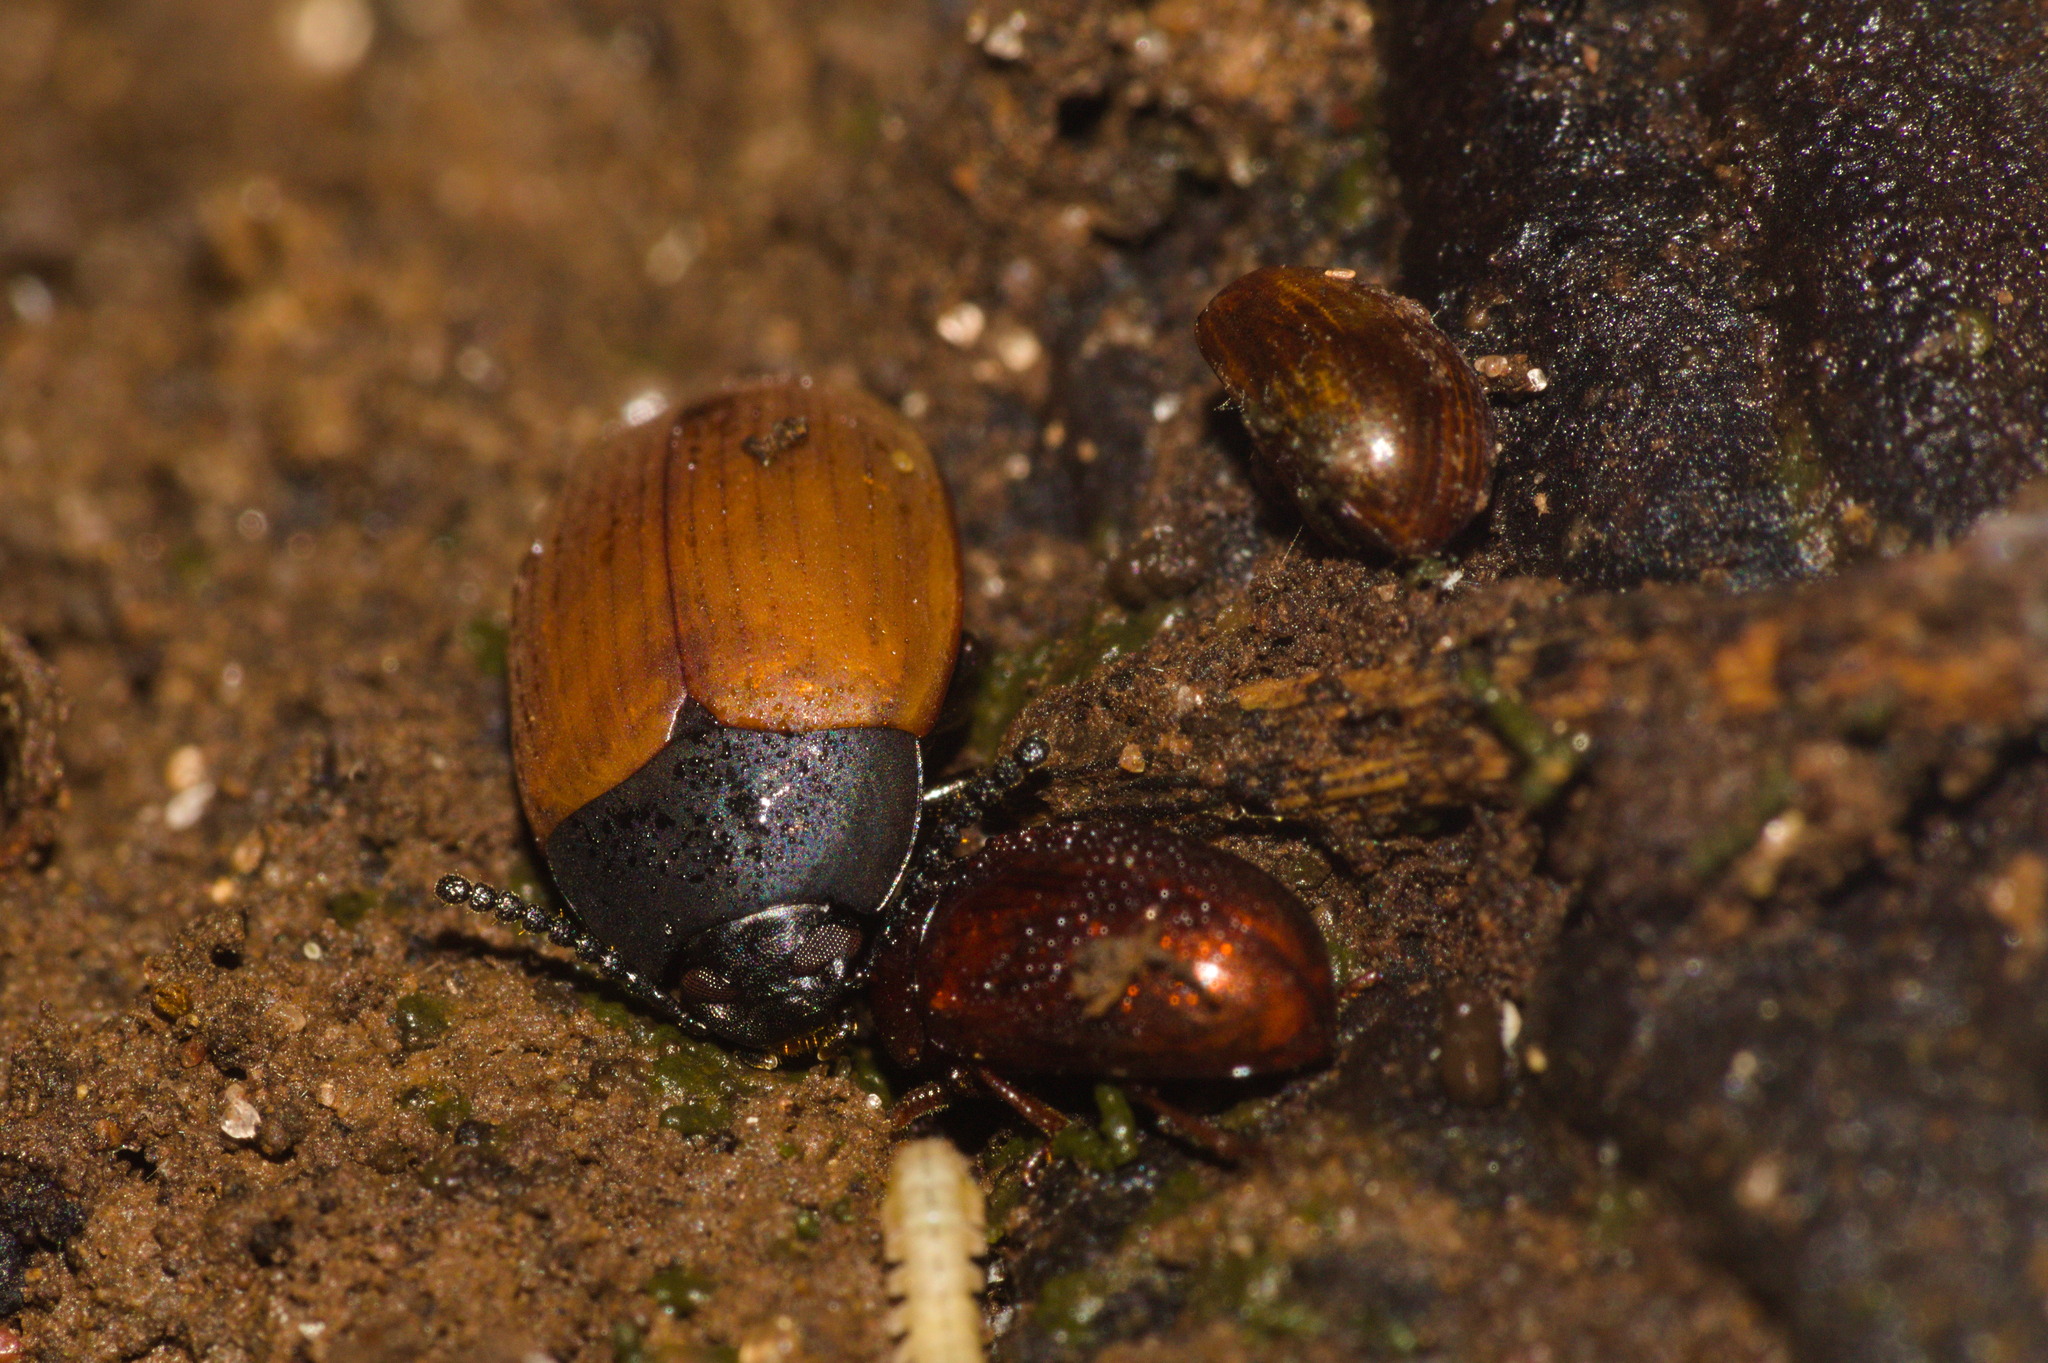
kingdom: Animalia
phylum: Arthropoda
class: Insecta
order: Coleoptera
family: Tenebrionidae
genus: Lelegeis
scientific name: Lelegeis pytanga
